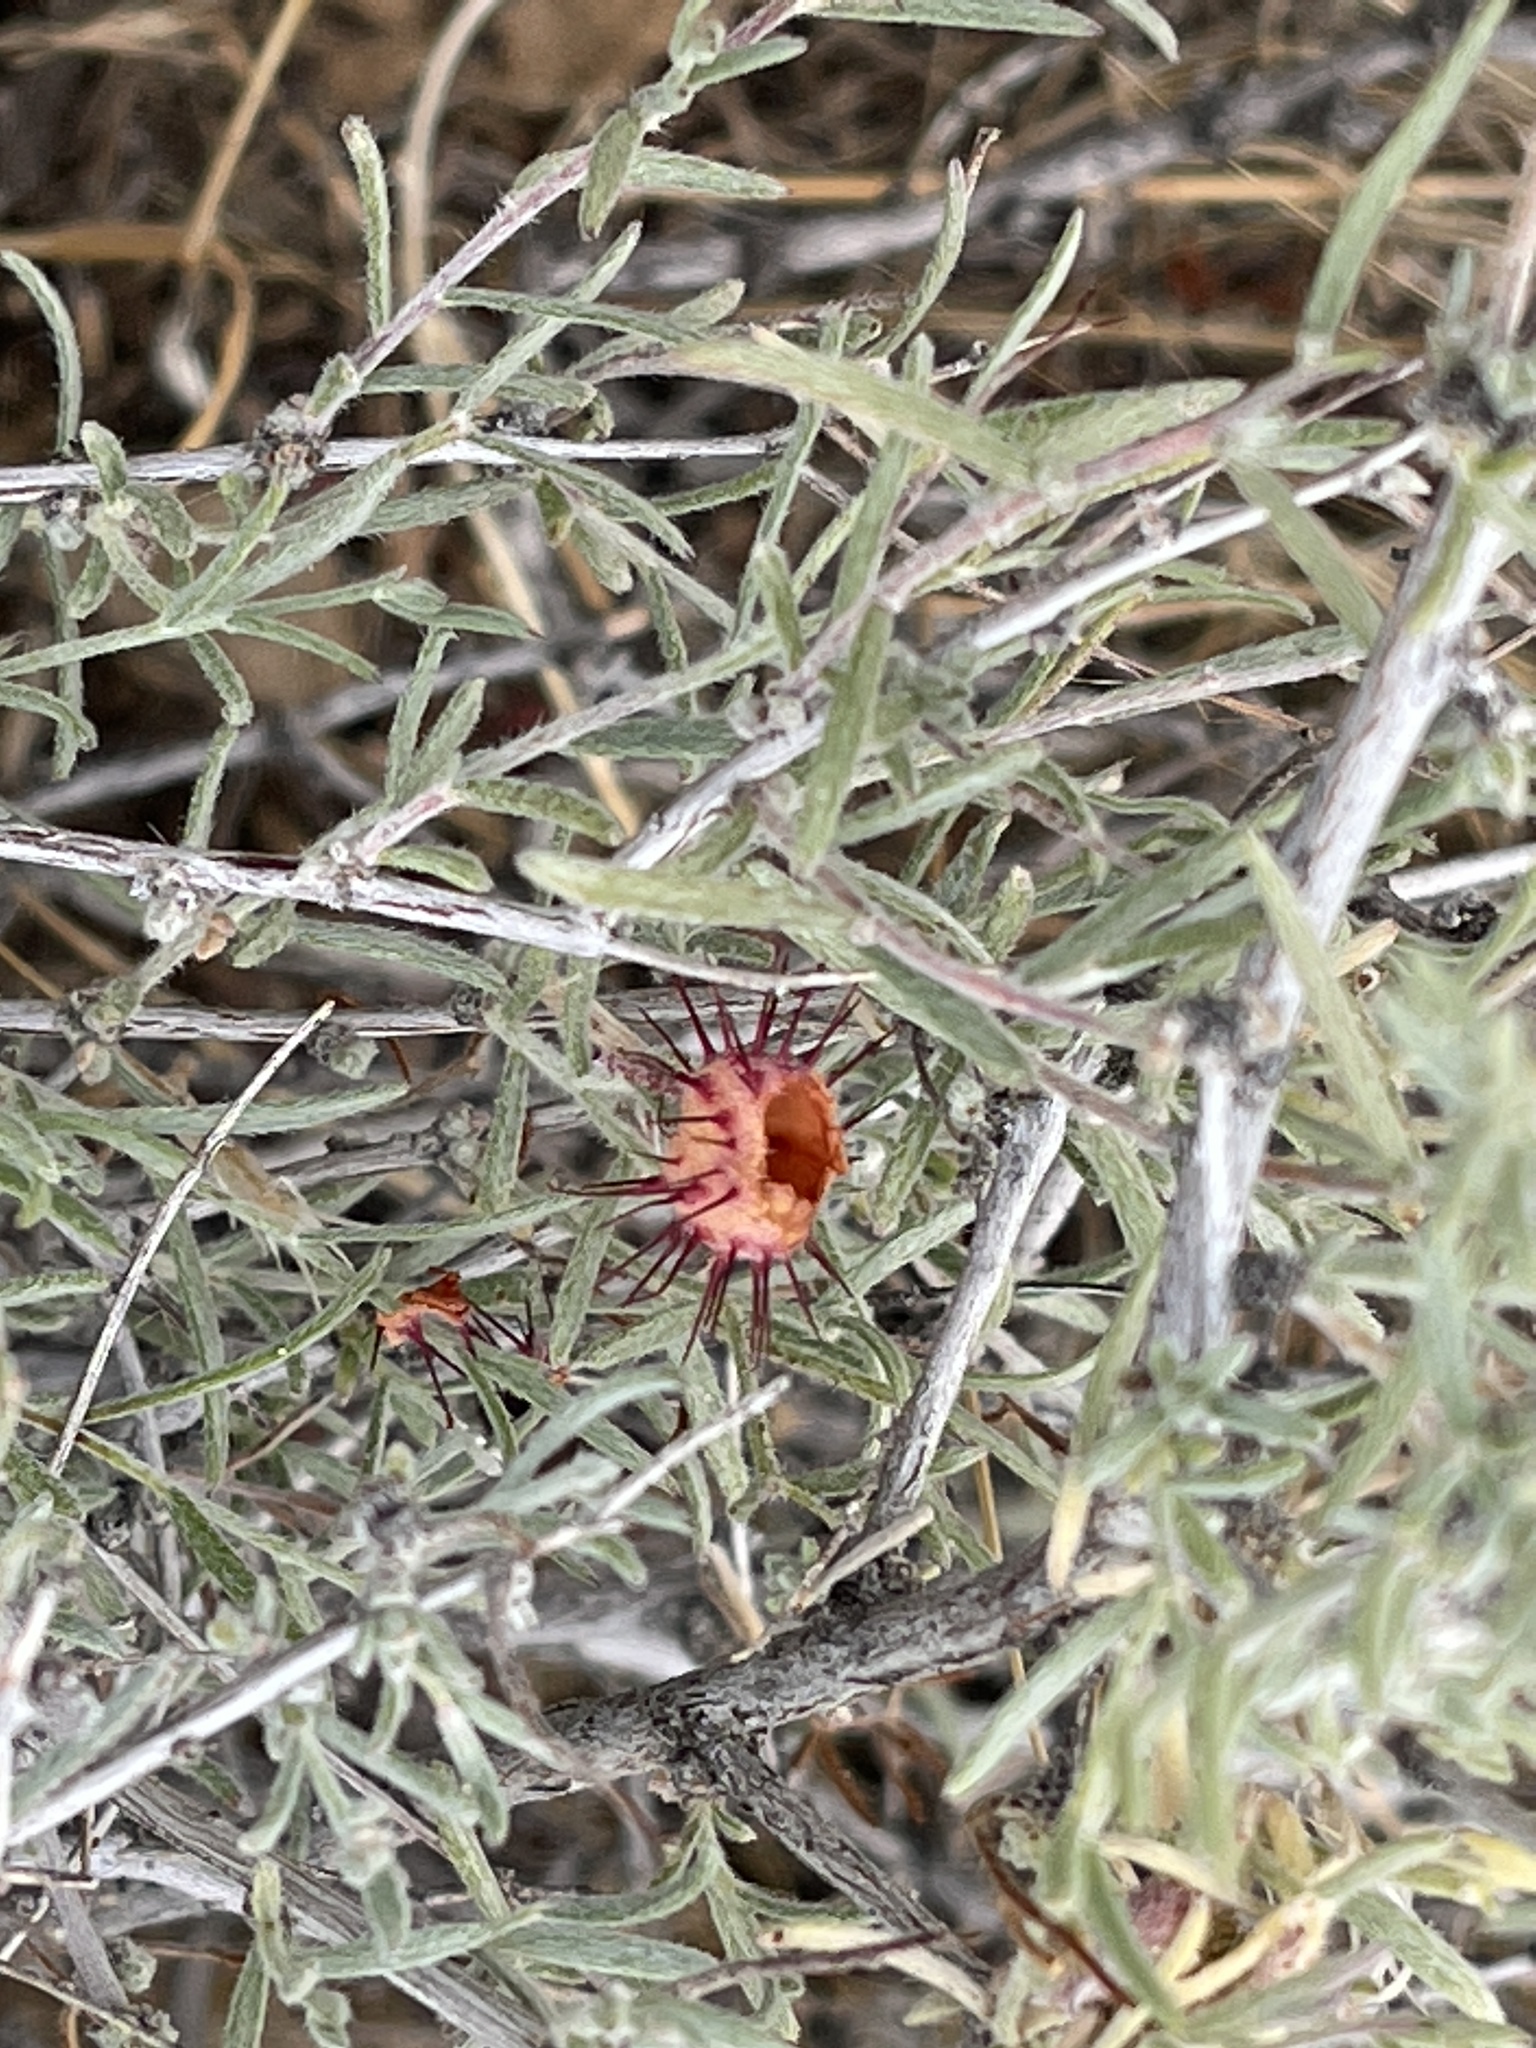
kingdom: Plantae
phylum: Tracheophyta
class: Magnoliopsida
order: Zygophyllales
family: Krameriaceae
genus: Krameria
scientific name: Krameria erecta
